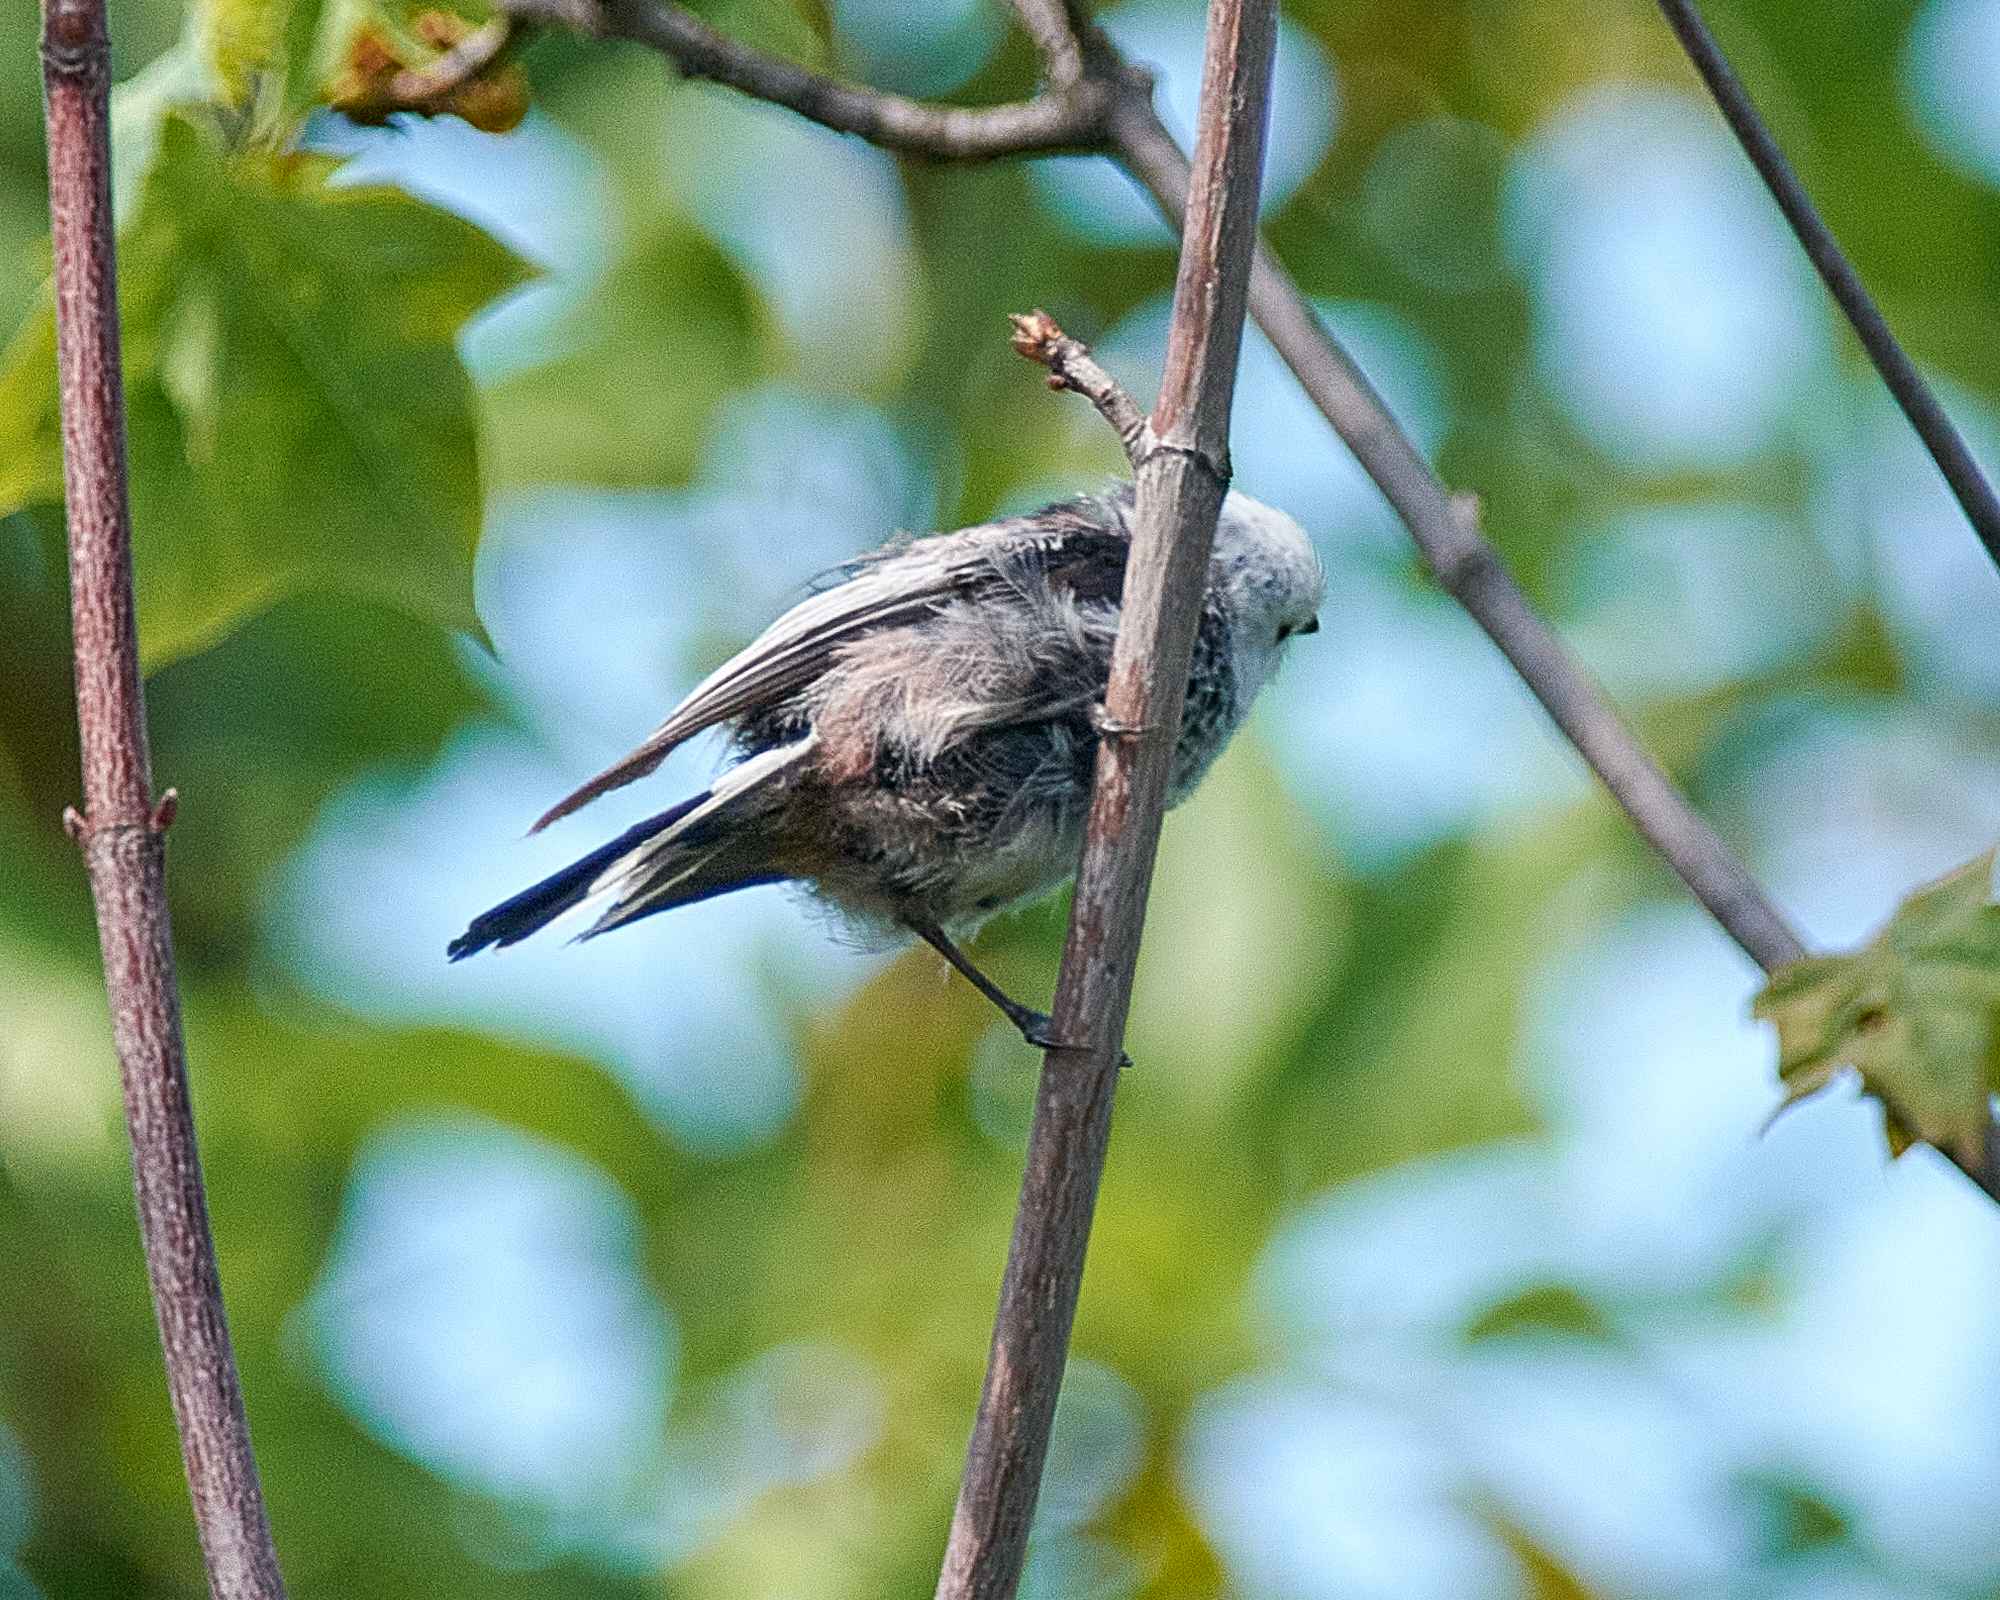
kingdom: Animalia
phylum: Chordata
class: Aves
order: Passeriformes
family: Aegithalidae
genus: Aegithalos
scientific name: Aegithalos caudatus
